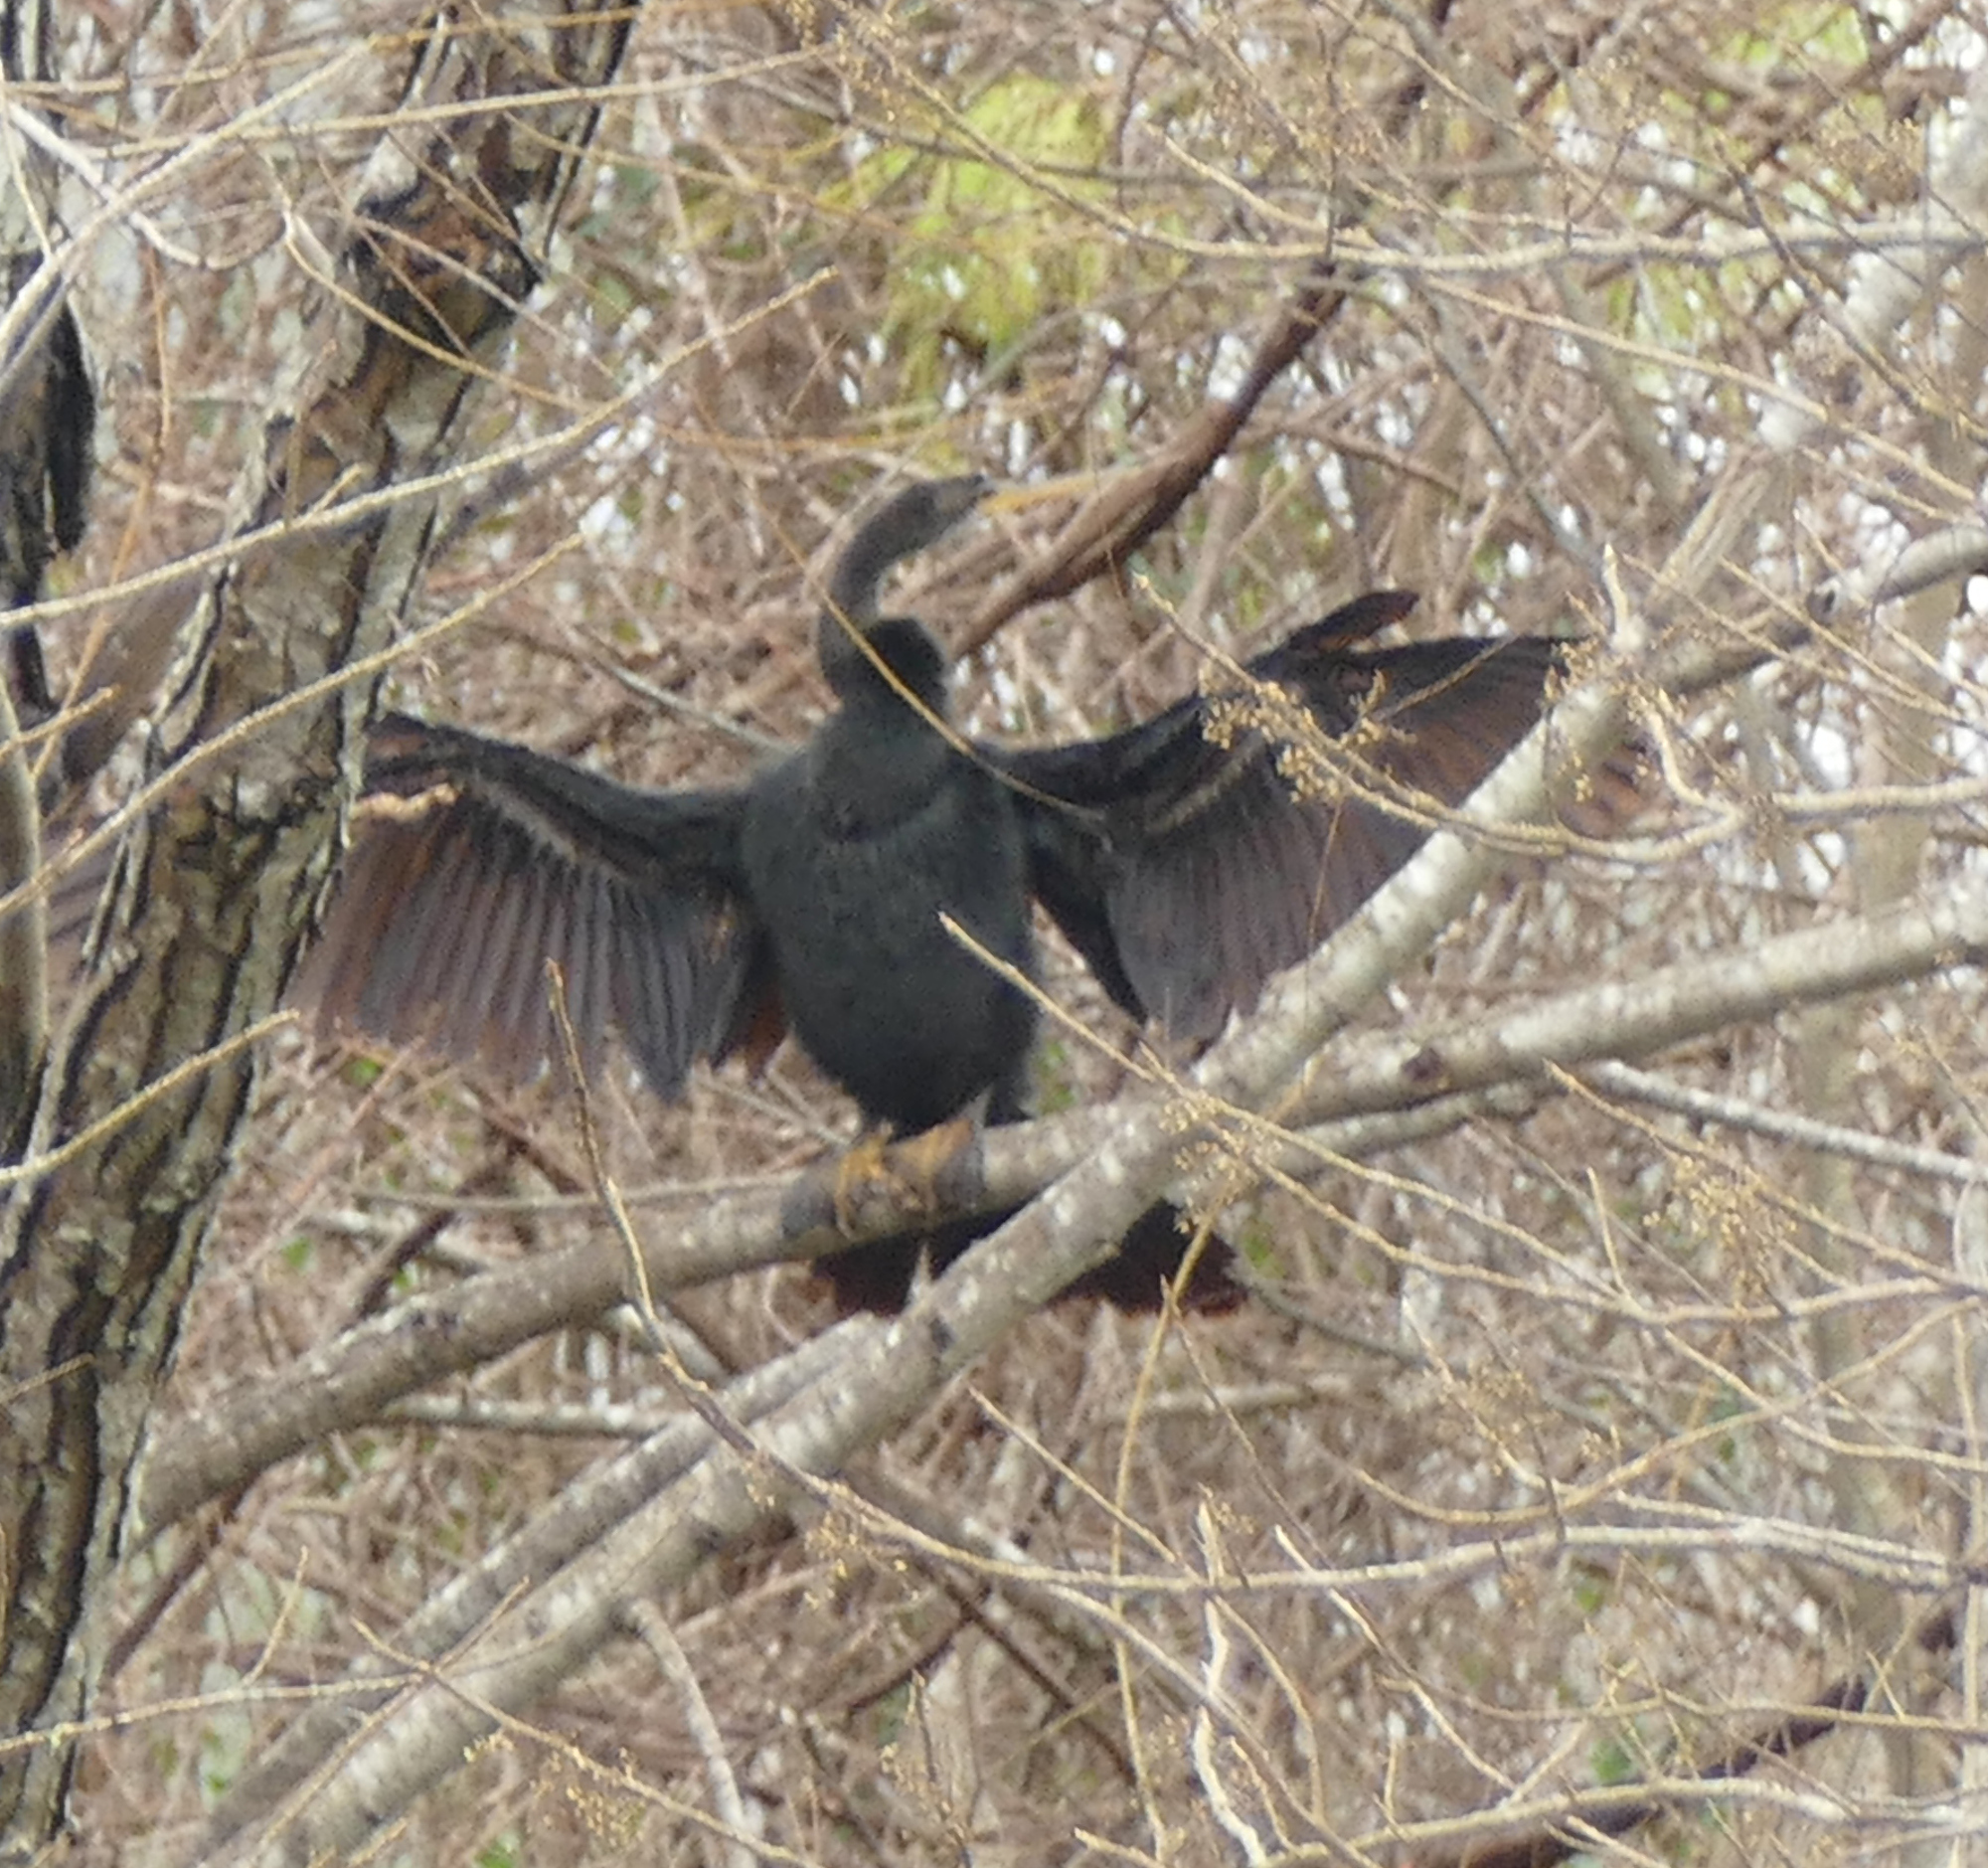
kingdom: Animalia
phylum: Chordata
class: Aves
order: Suliformes
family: Anhingidae
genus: Anhinga
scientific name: Anhinga anhinga
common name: Anhinga
